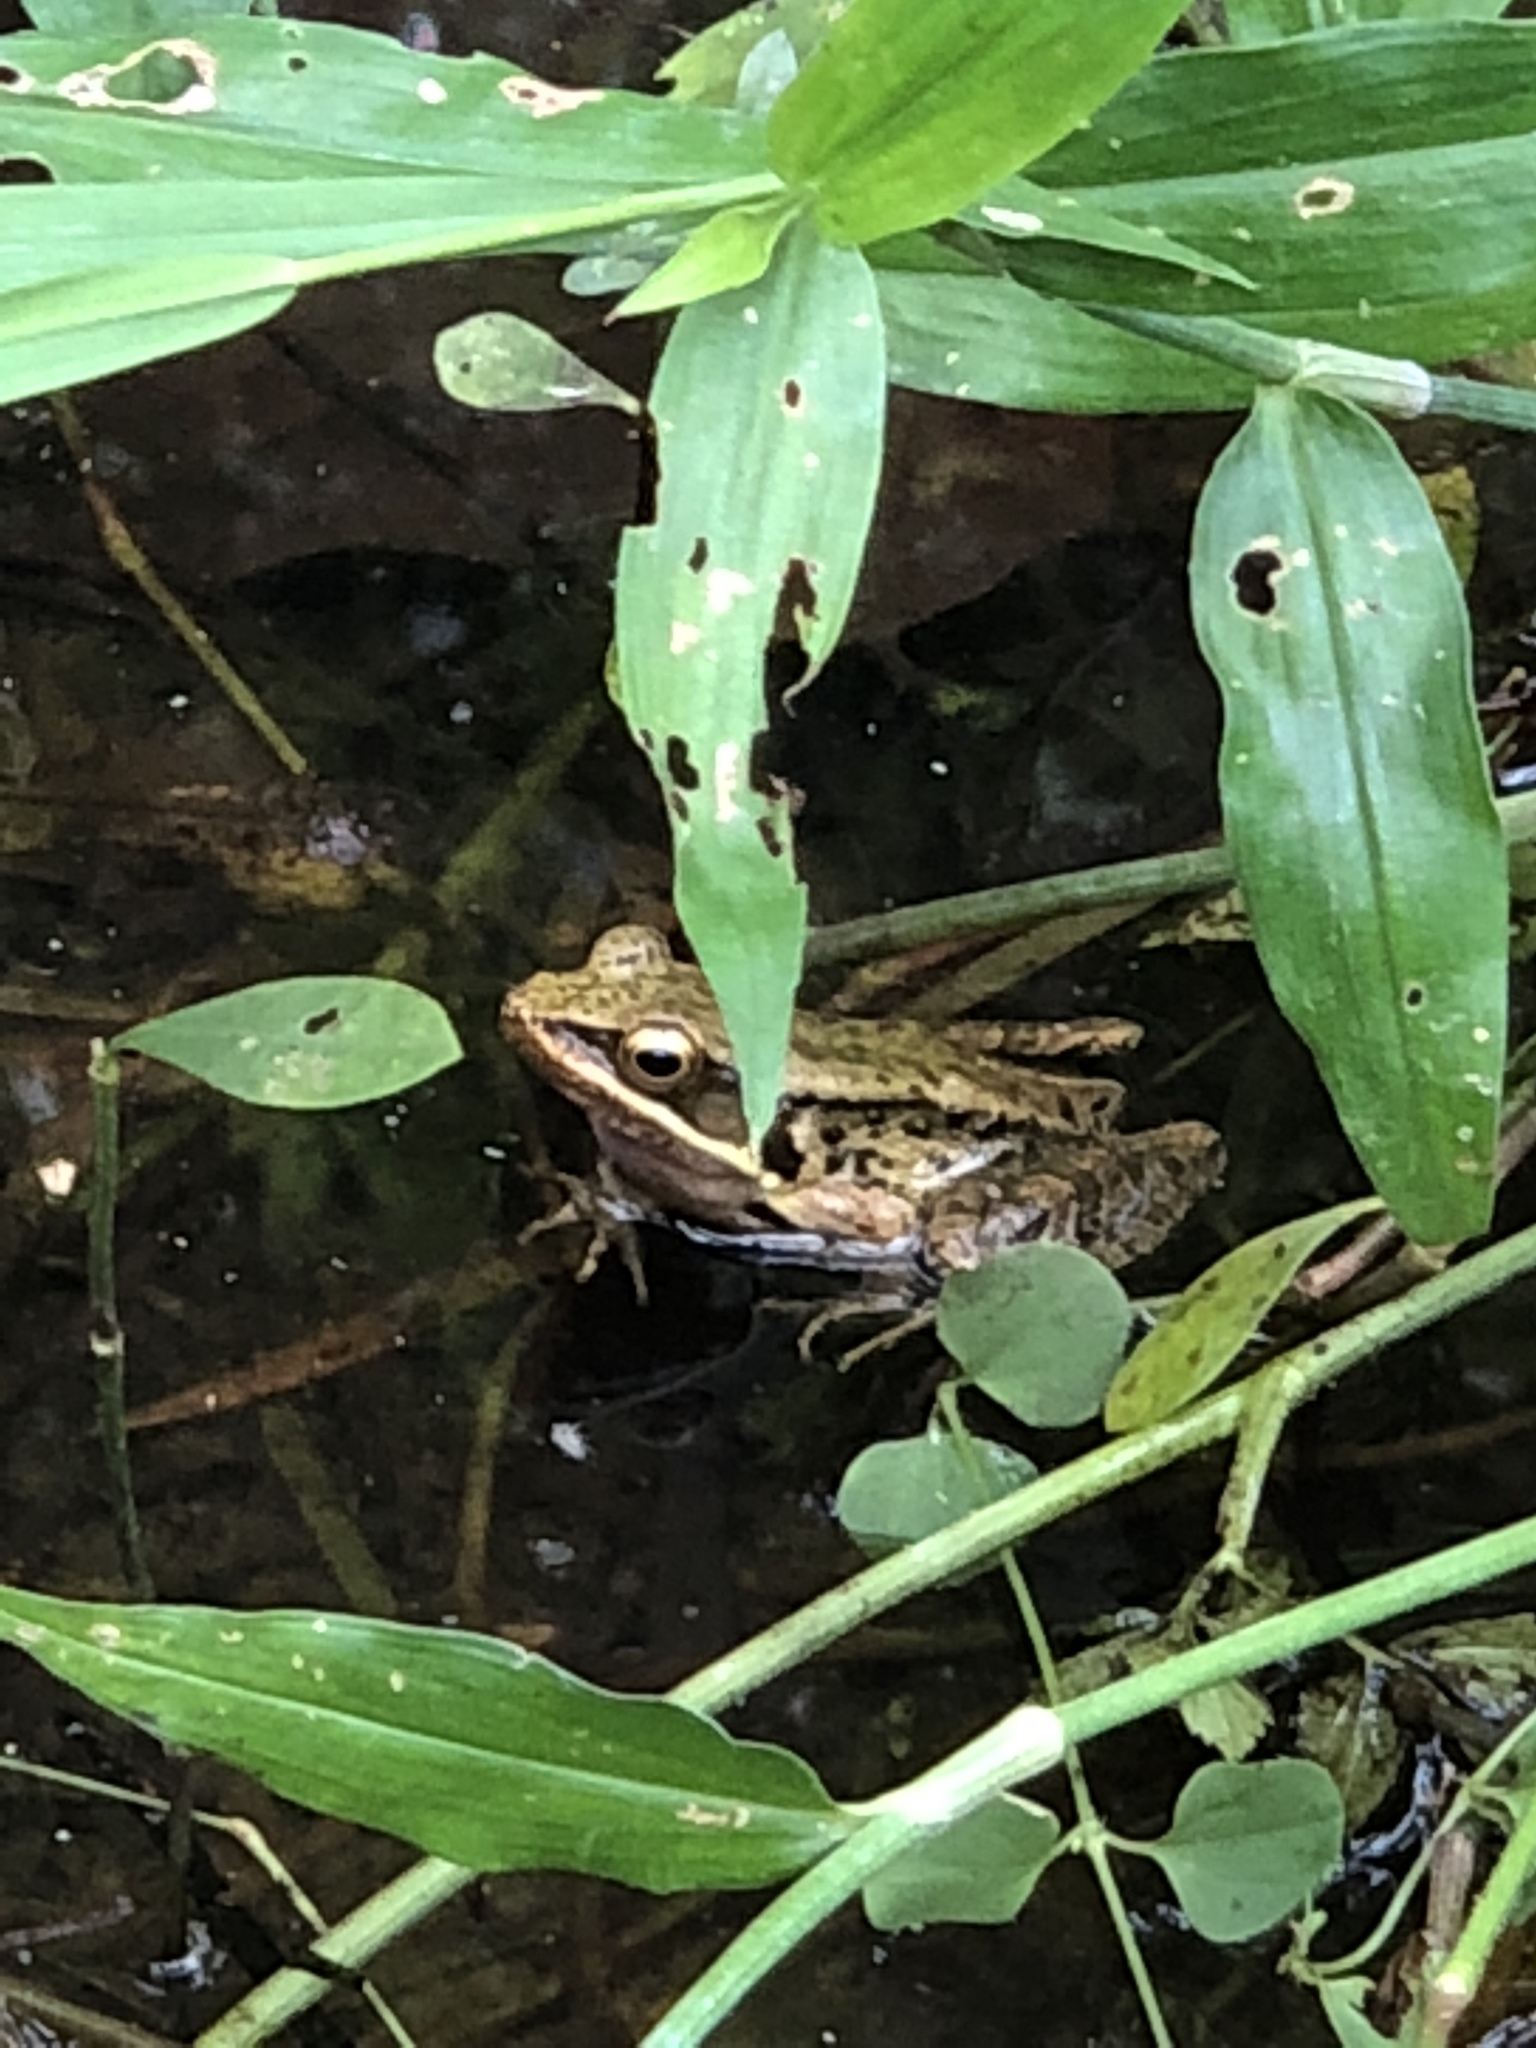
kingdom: Animalia
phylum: Chordata
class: Amphibia
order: Anura
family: Ranidae
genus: Nidirana
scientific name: Nidirana adenopleura
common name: Olive frog
